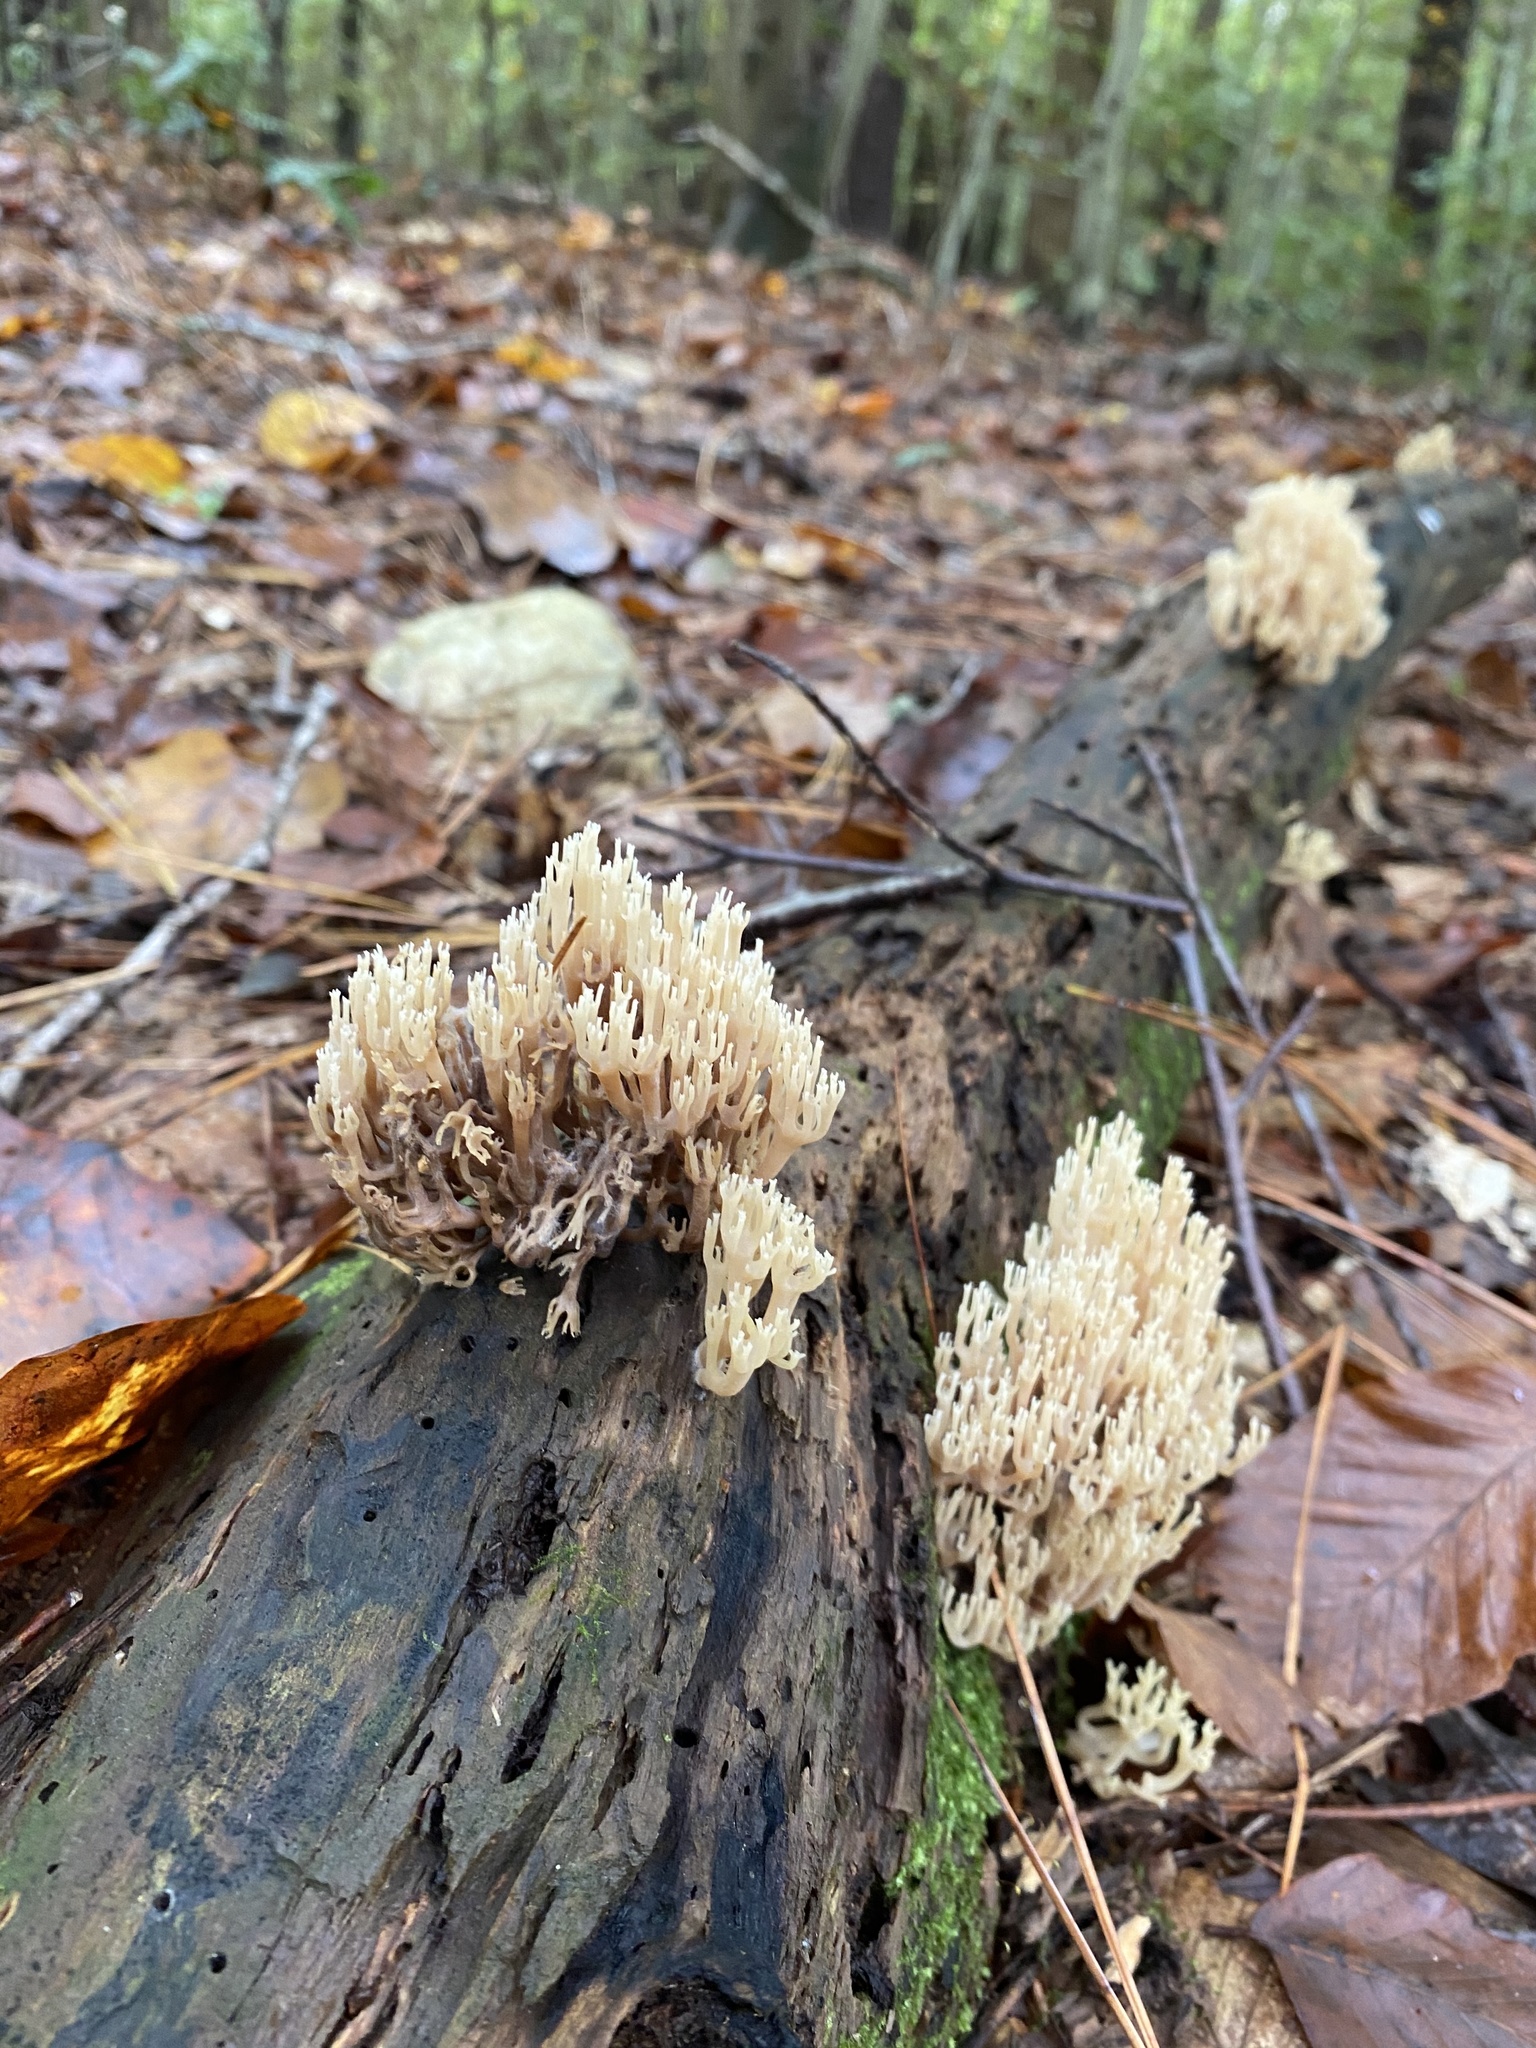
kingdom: Fungi
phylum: Basidiomycota
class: Agaricomycetes
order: Russulales
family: Auriscalpiaceae
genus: Artomyces
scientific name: Artomyces pyxidatus
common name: Crown-tipped coral fungus
